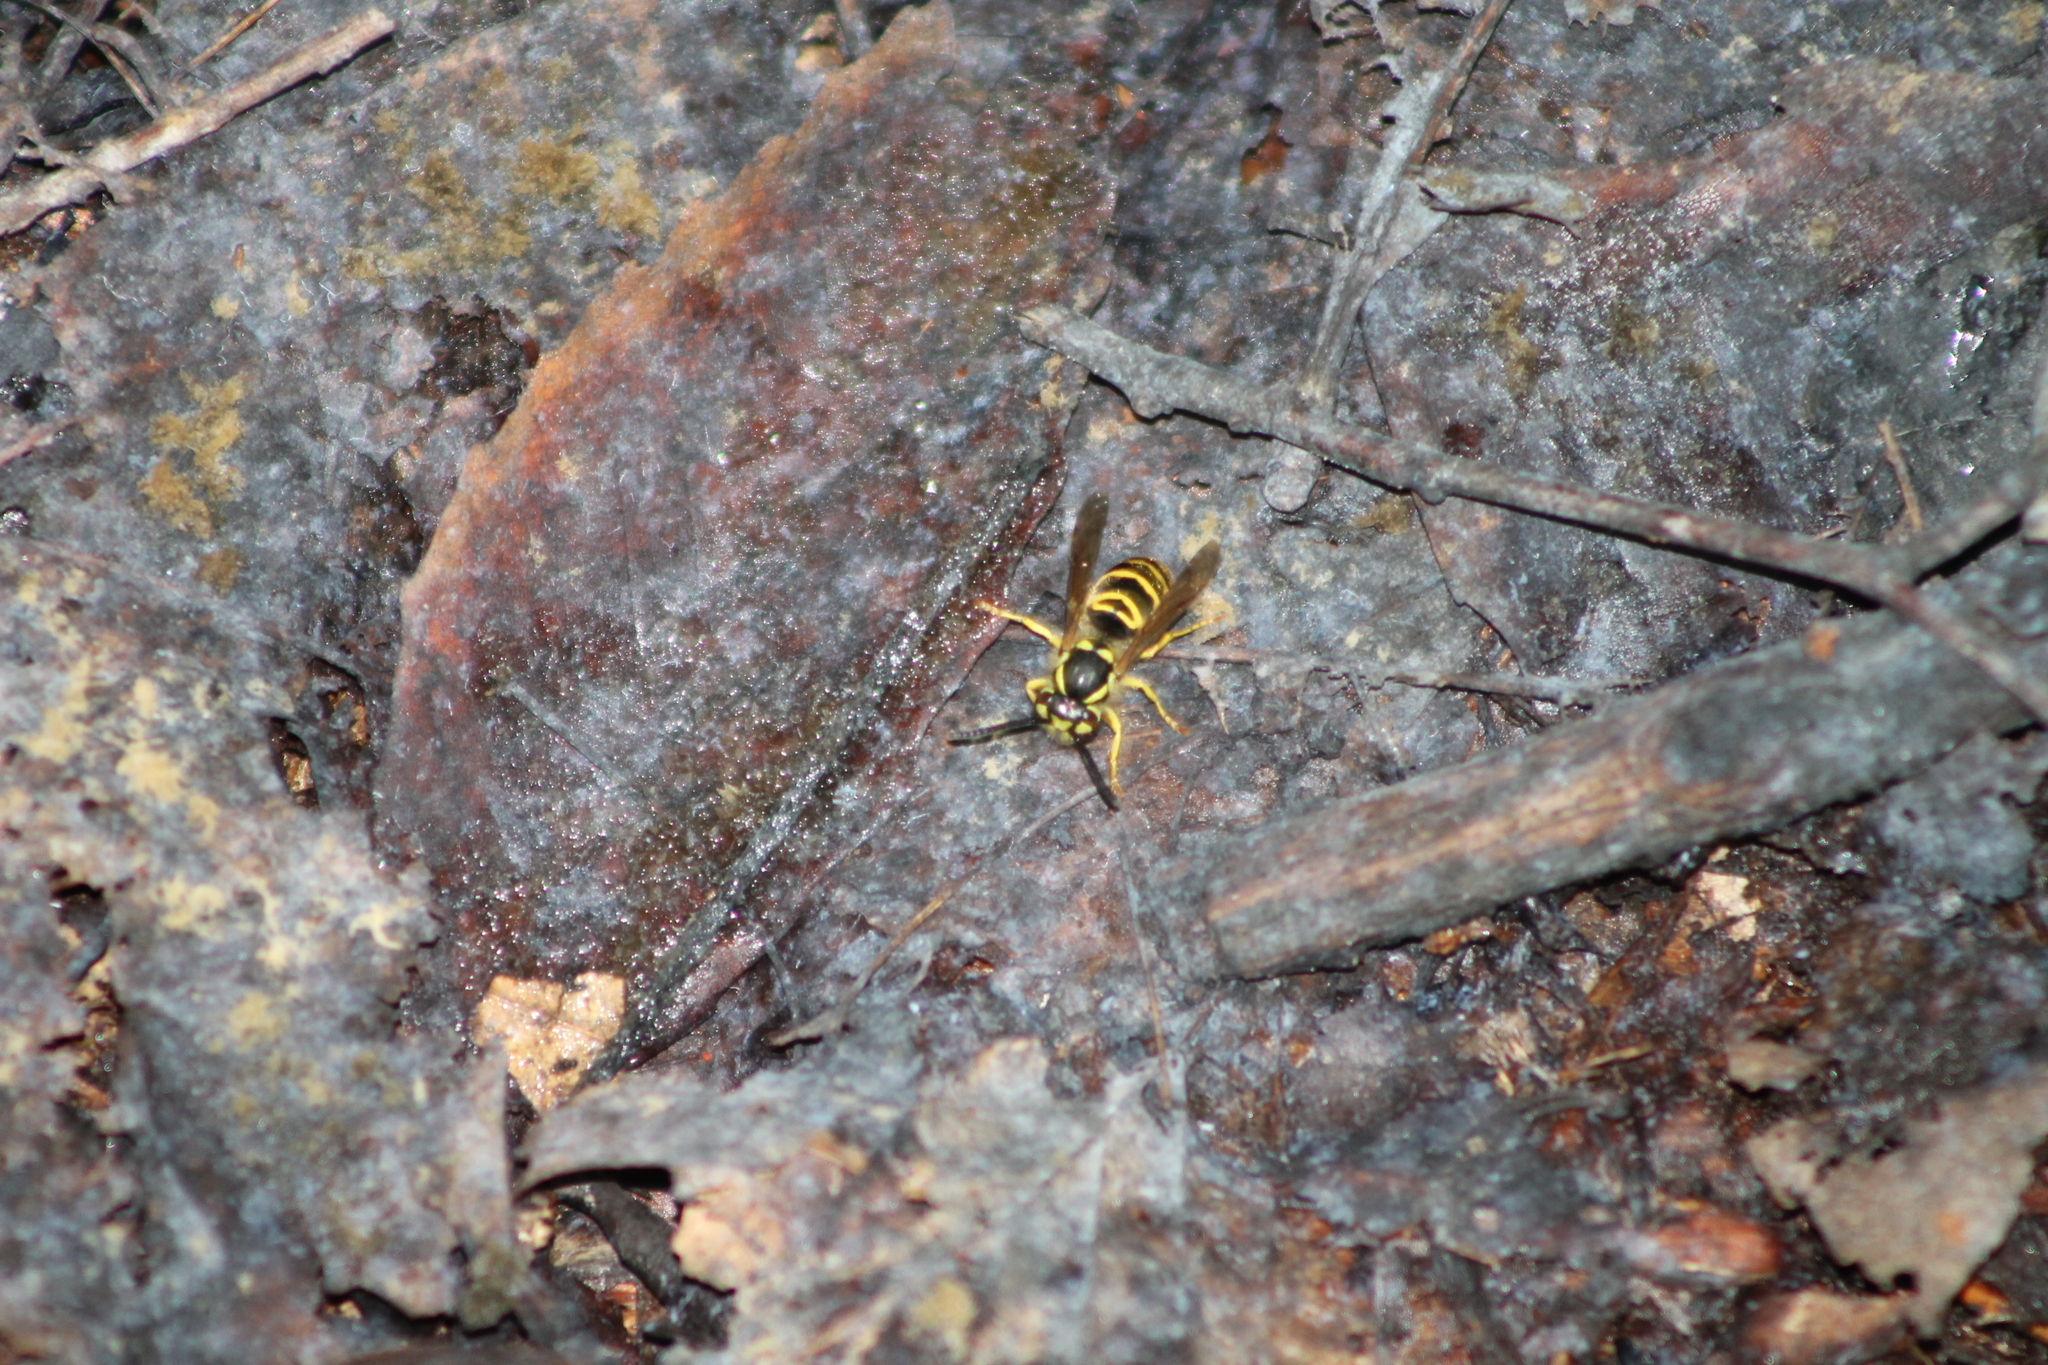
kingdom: Animalia
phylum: Arthropoda
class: Insecta
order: Hymenoptera
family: Vespidae
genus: Vespula
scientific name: Vespula maculifrons
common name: Eastern yellowjacket
